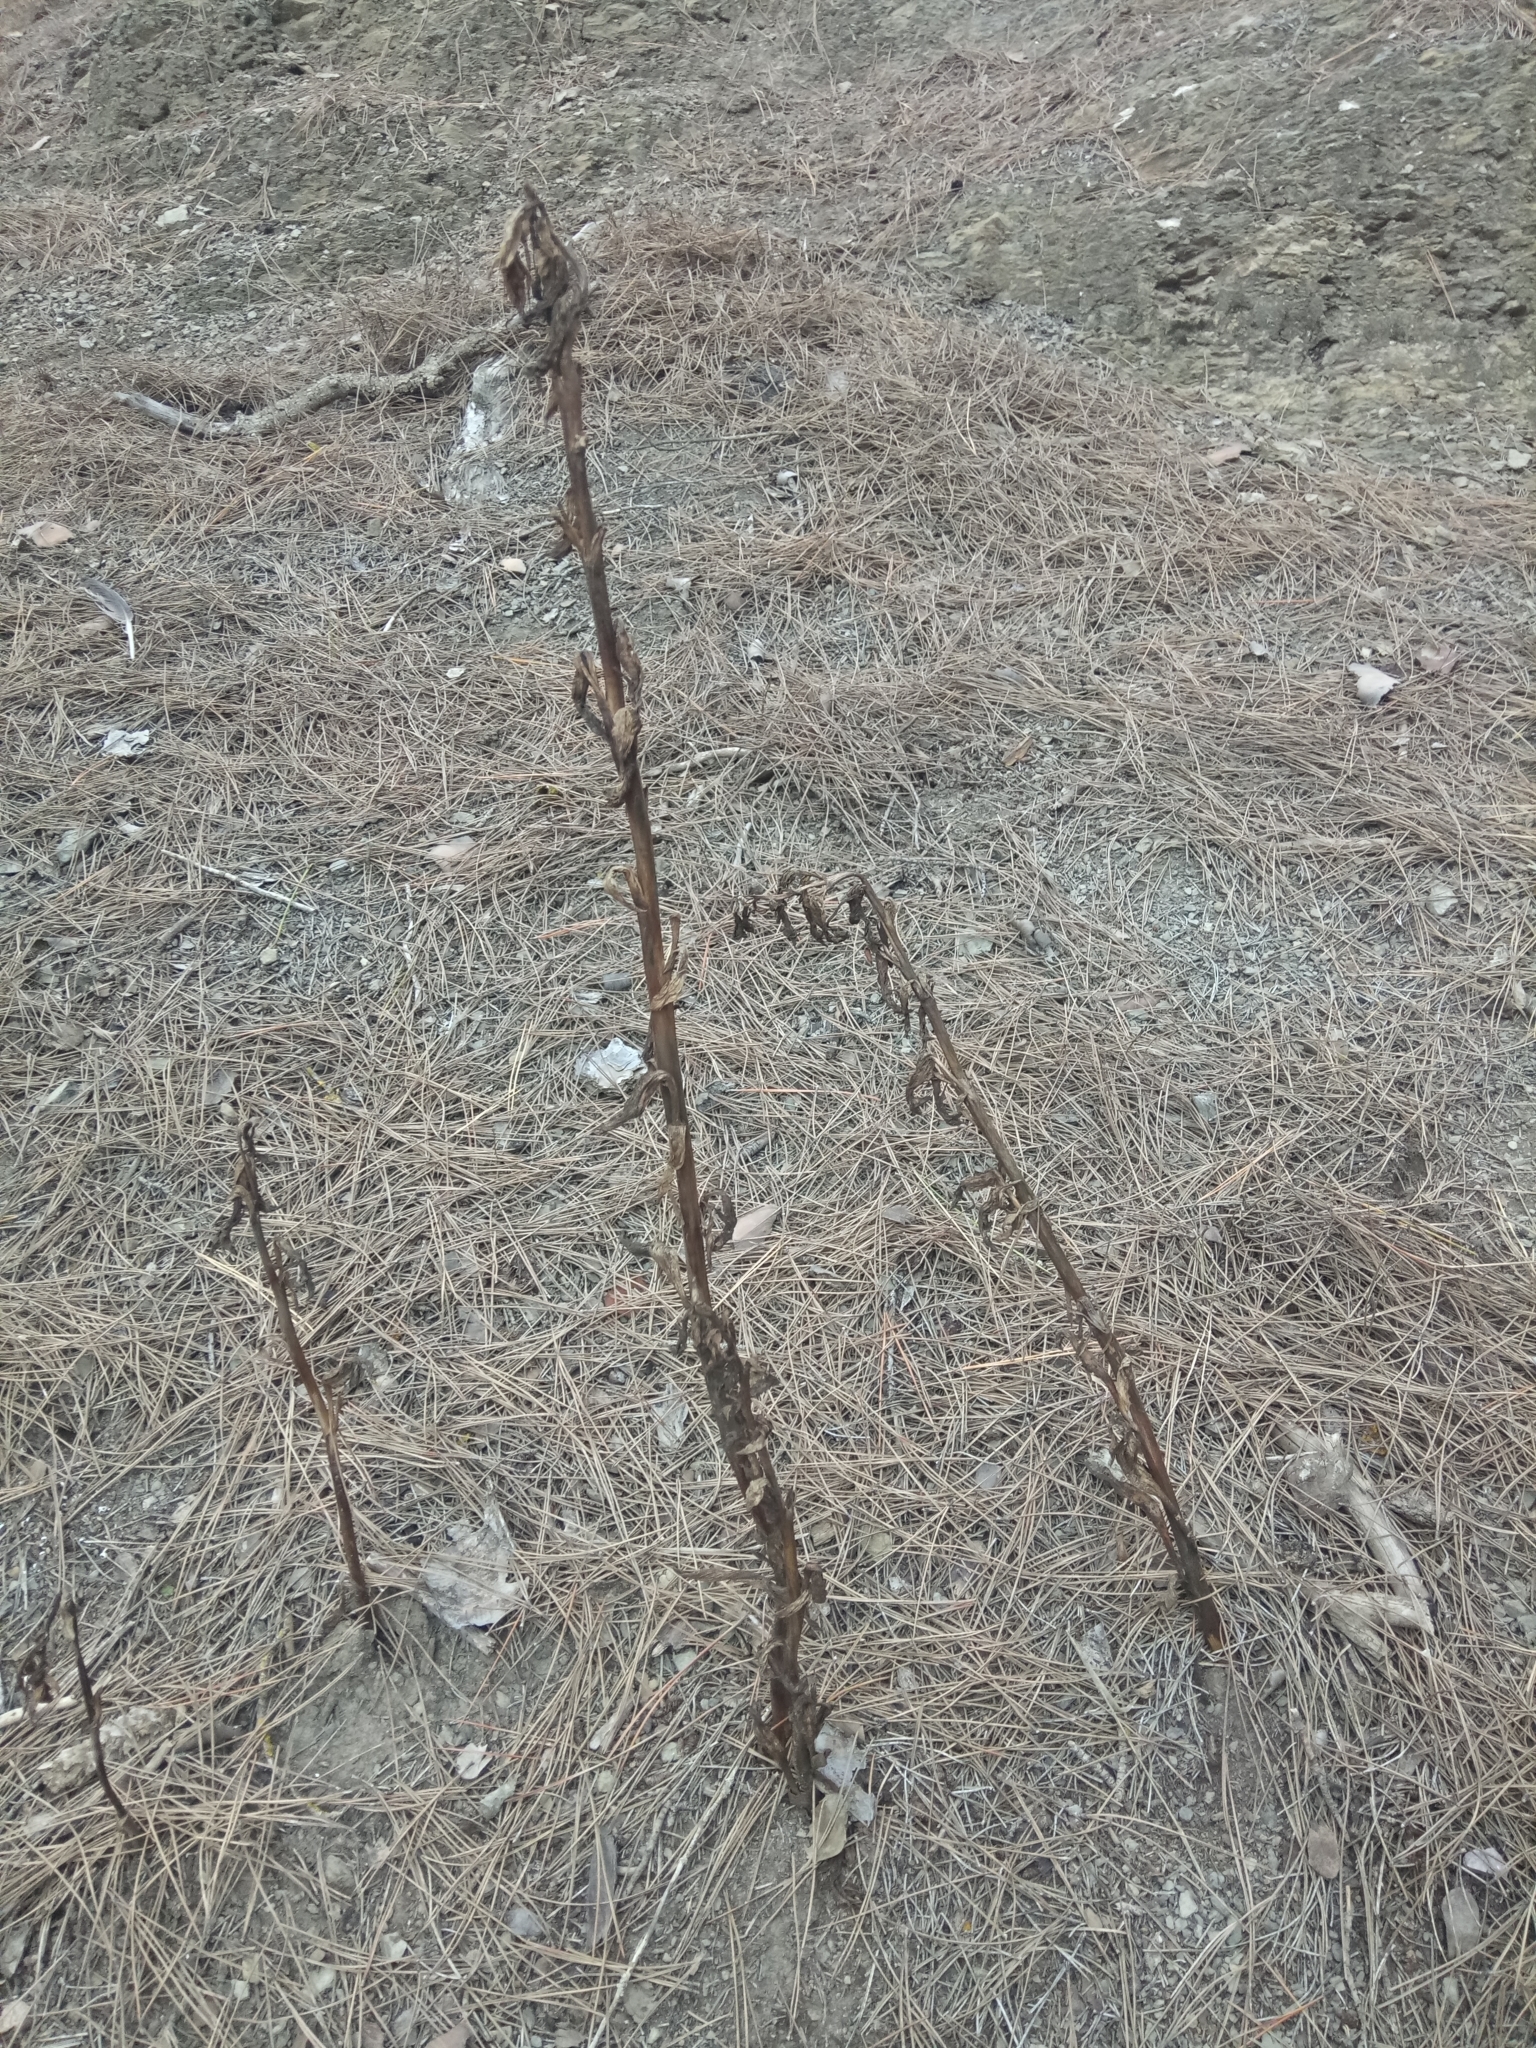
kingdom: Plantae
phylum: Tracheophyta
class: Liliopsida
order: Asparagales
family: Orchidaceae
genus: Limodorum
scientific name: Limodorum abortivum
